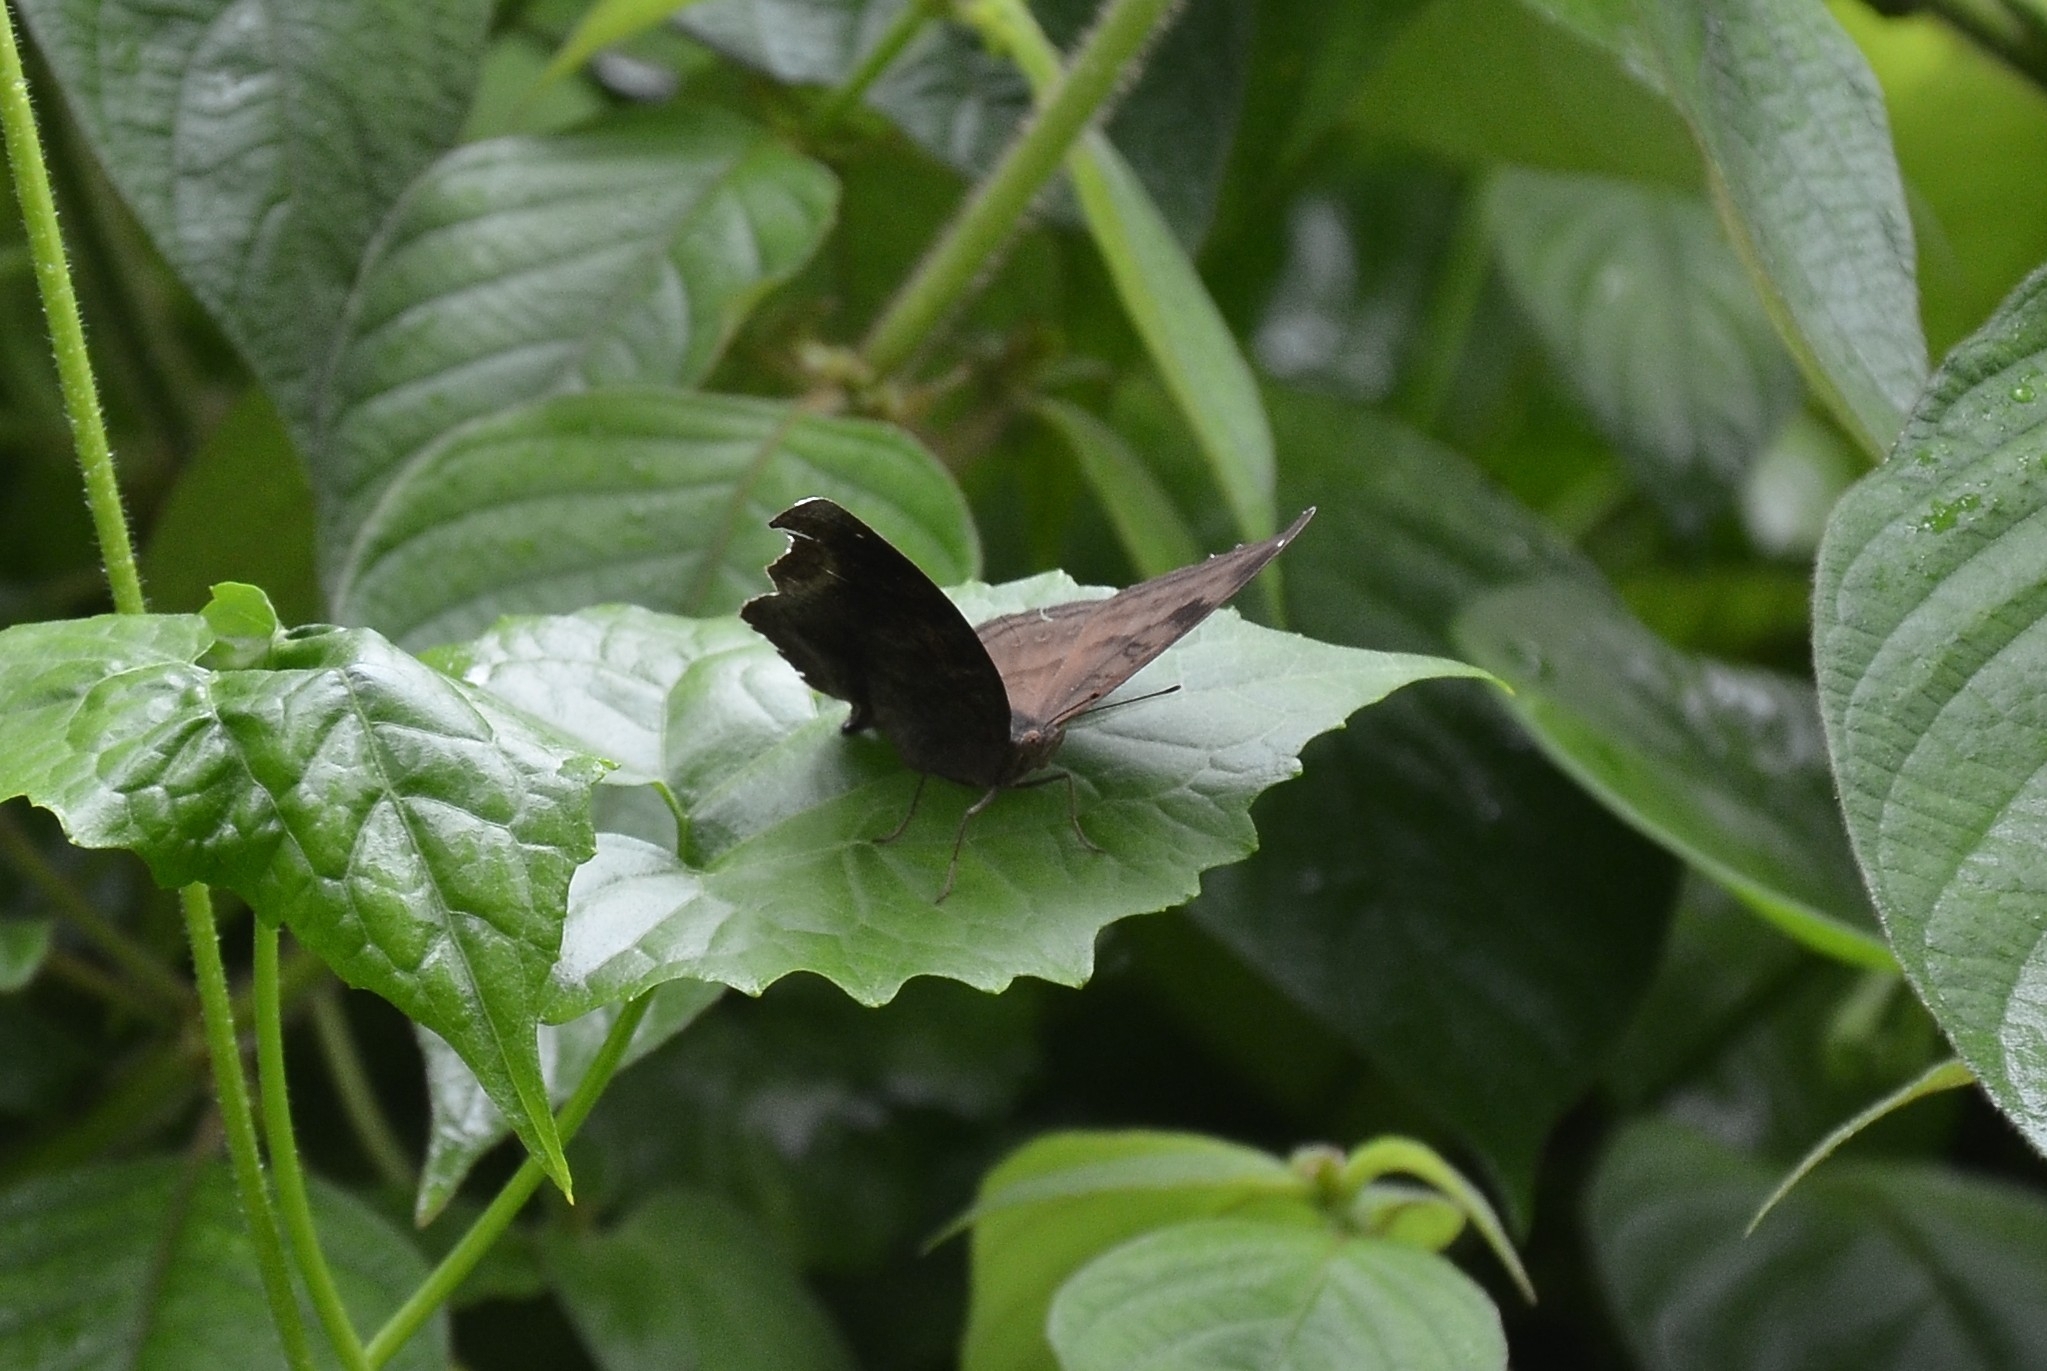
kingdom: Animalia
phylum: Arthropoda
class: Insecta
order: Lepidoptera
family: Nymphalidae
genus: Junonia
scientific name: Junonia iphita
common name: Chocolate pansy
